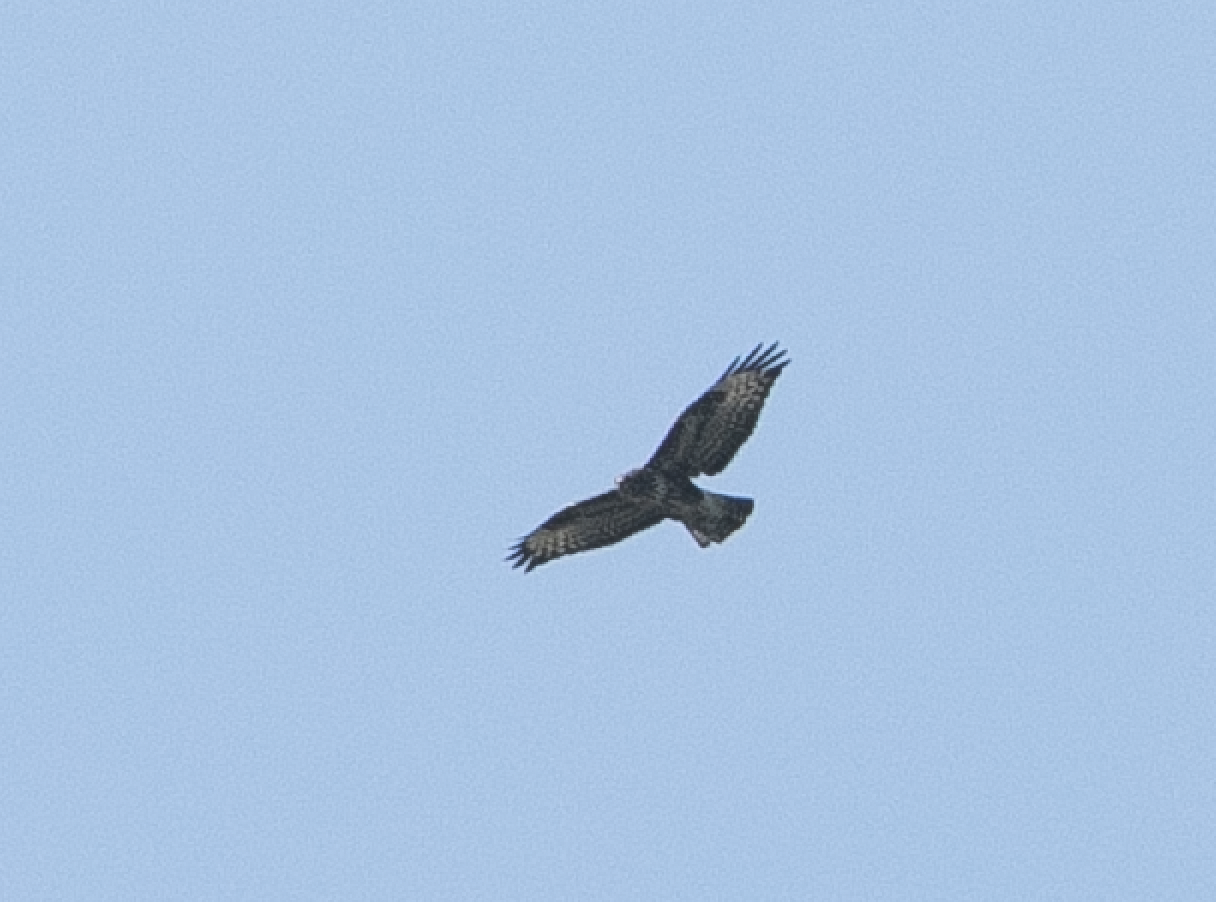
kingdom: Animalia
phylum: Chordata
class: Aves
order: Accipitriformes
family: Accipitridae
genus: Buteo
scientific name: Buteo buteo
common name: Common buzzard
